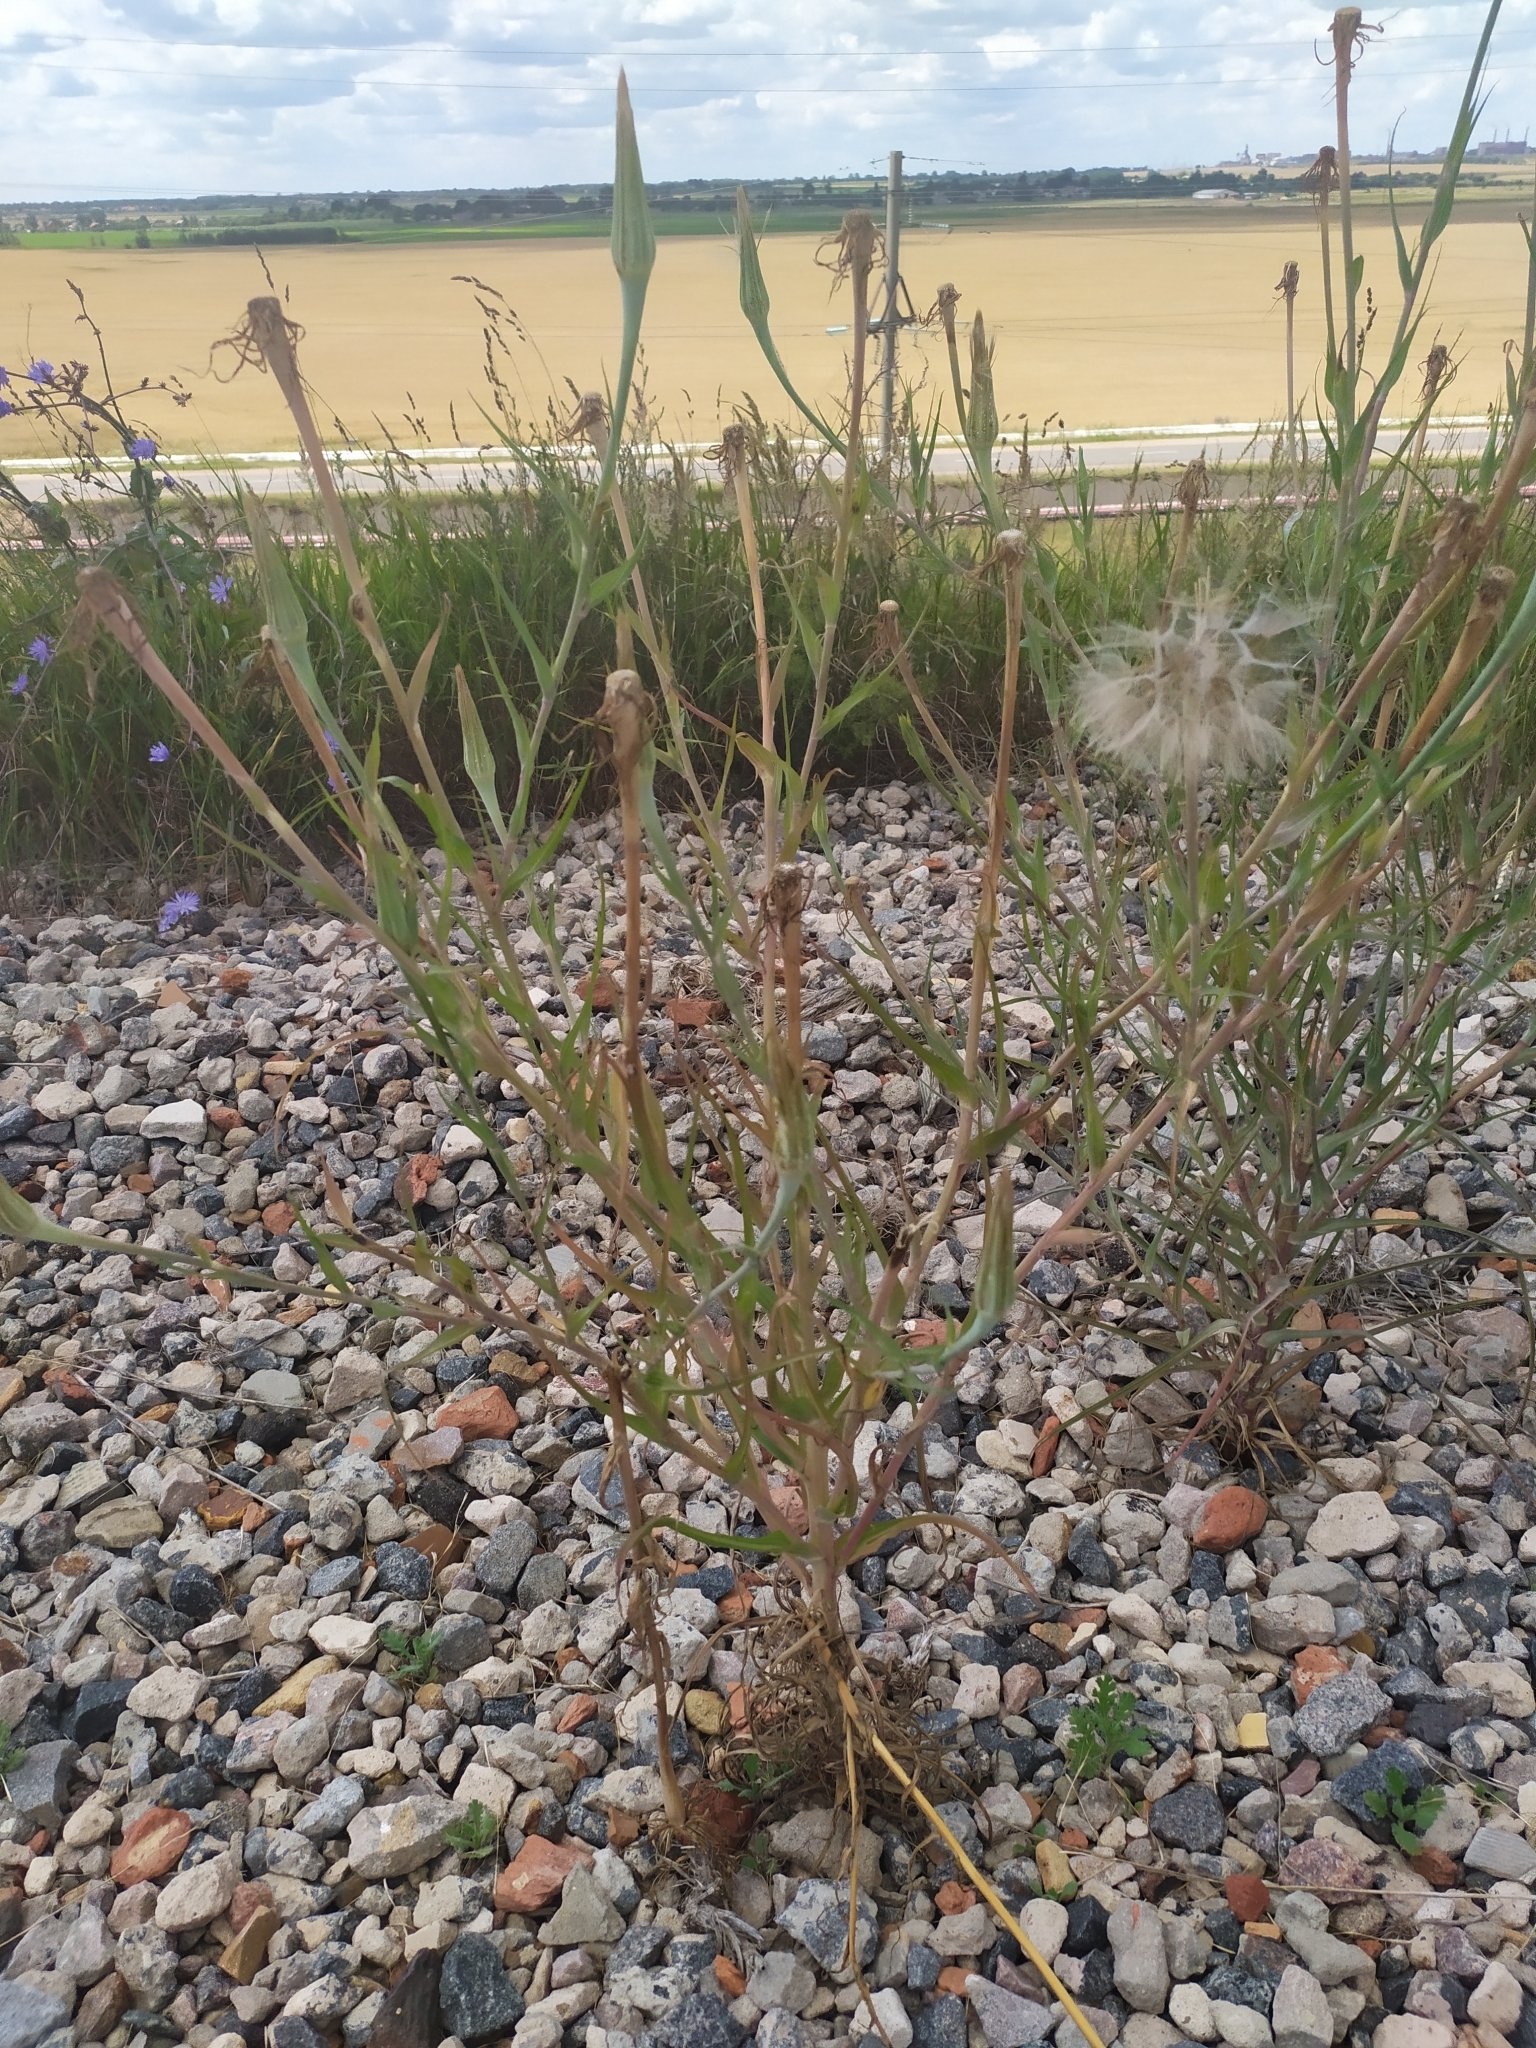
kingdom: Plantae
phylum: Tracheophyta
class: Magnoliopsida
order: Asterales
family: Asteraceae
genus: Tragopogon
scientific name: Tragopogon dubius
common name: Yellow salsify
